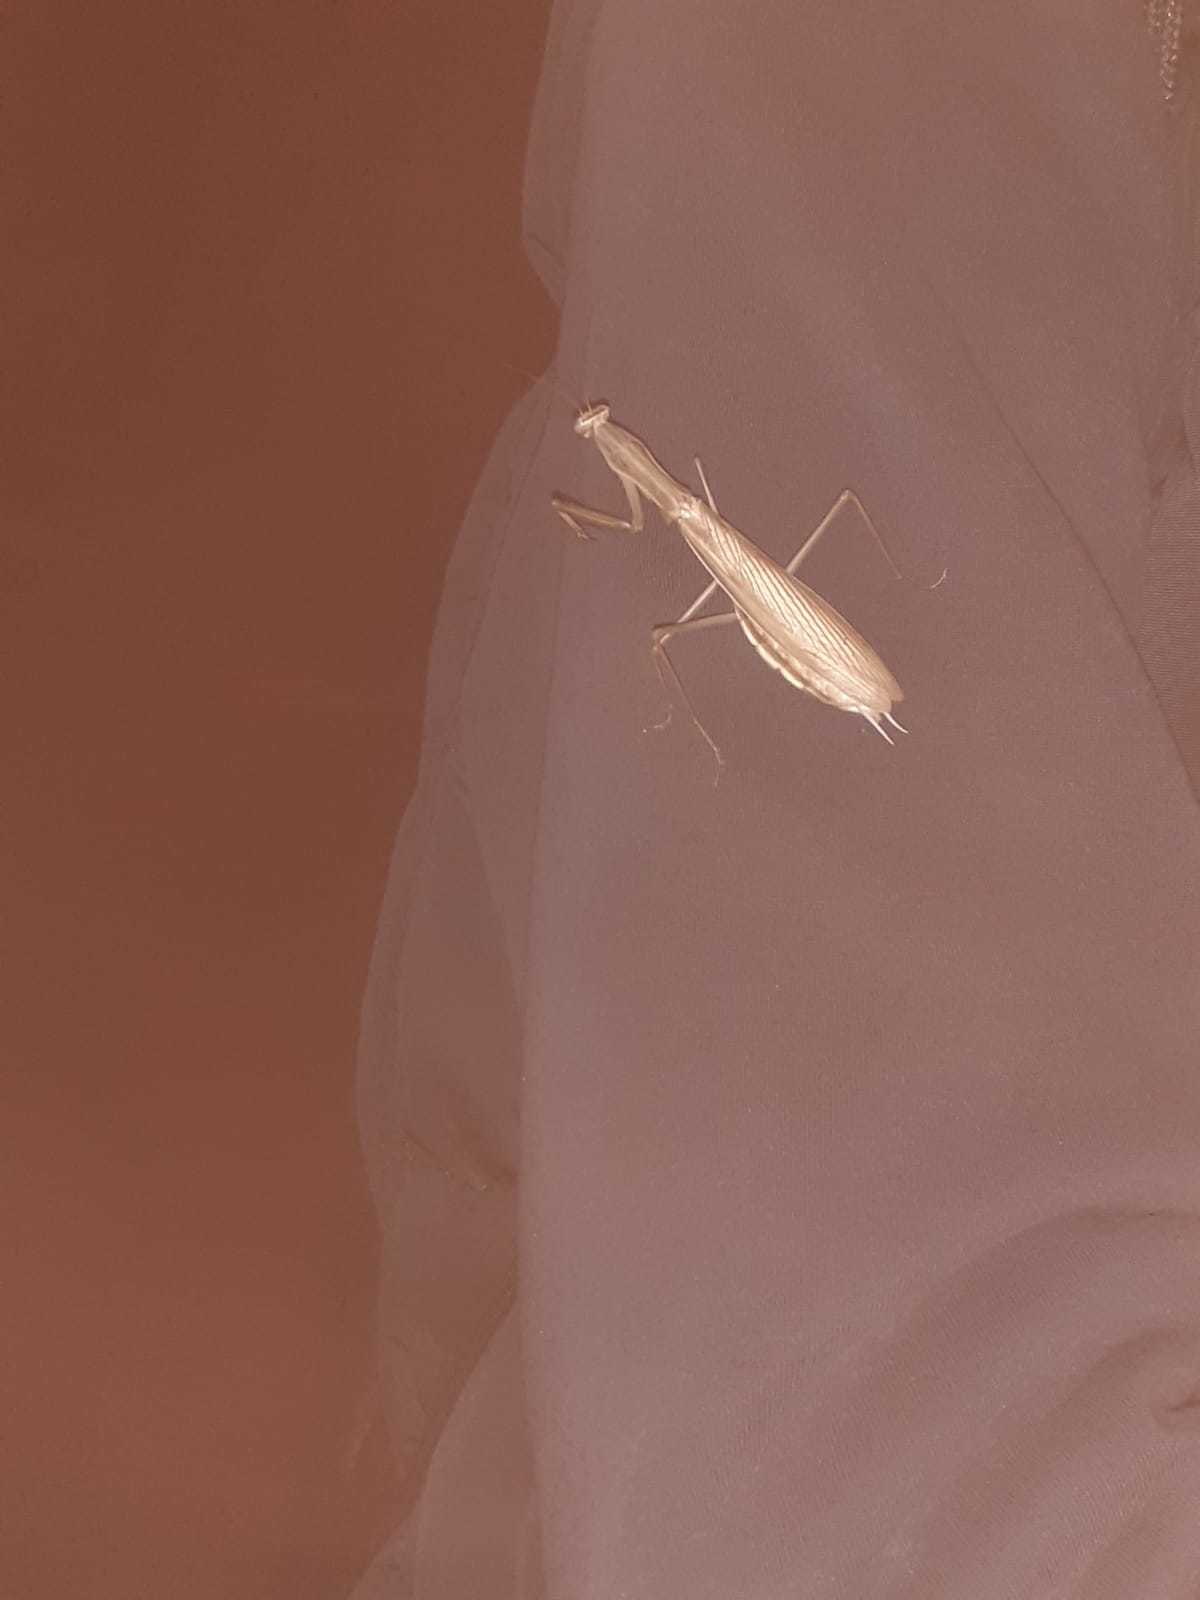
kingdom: Animalia
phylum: Arthropoda
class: Insecta
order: Mantodea
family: Mantidae
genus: Mantis
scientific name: Mantis religiosa
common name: Praying mantis
